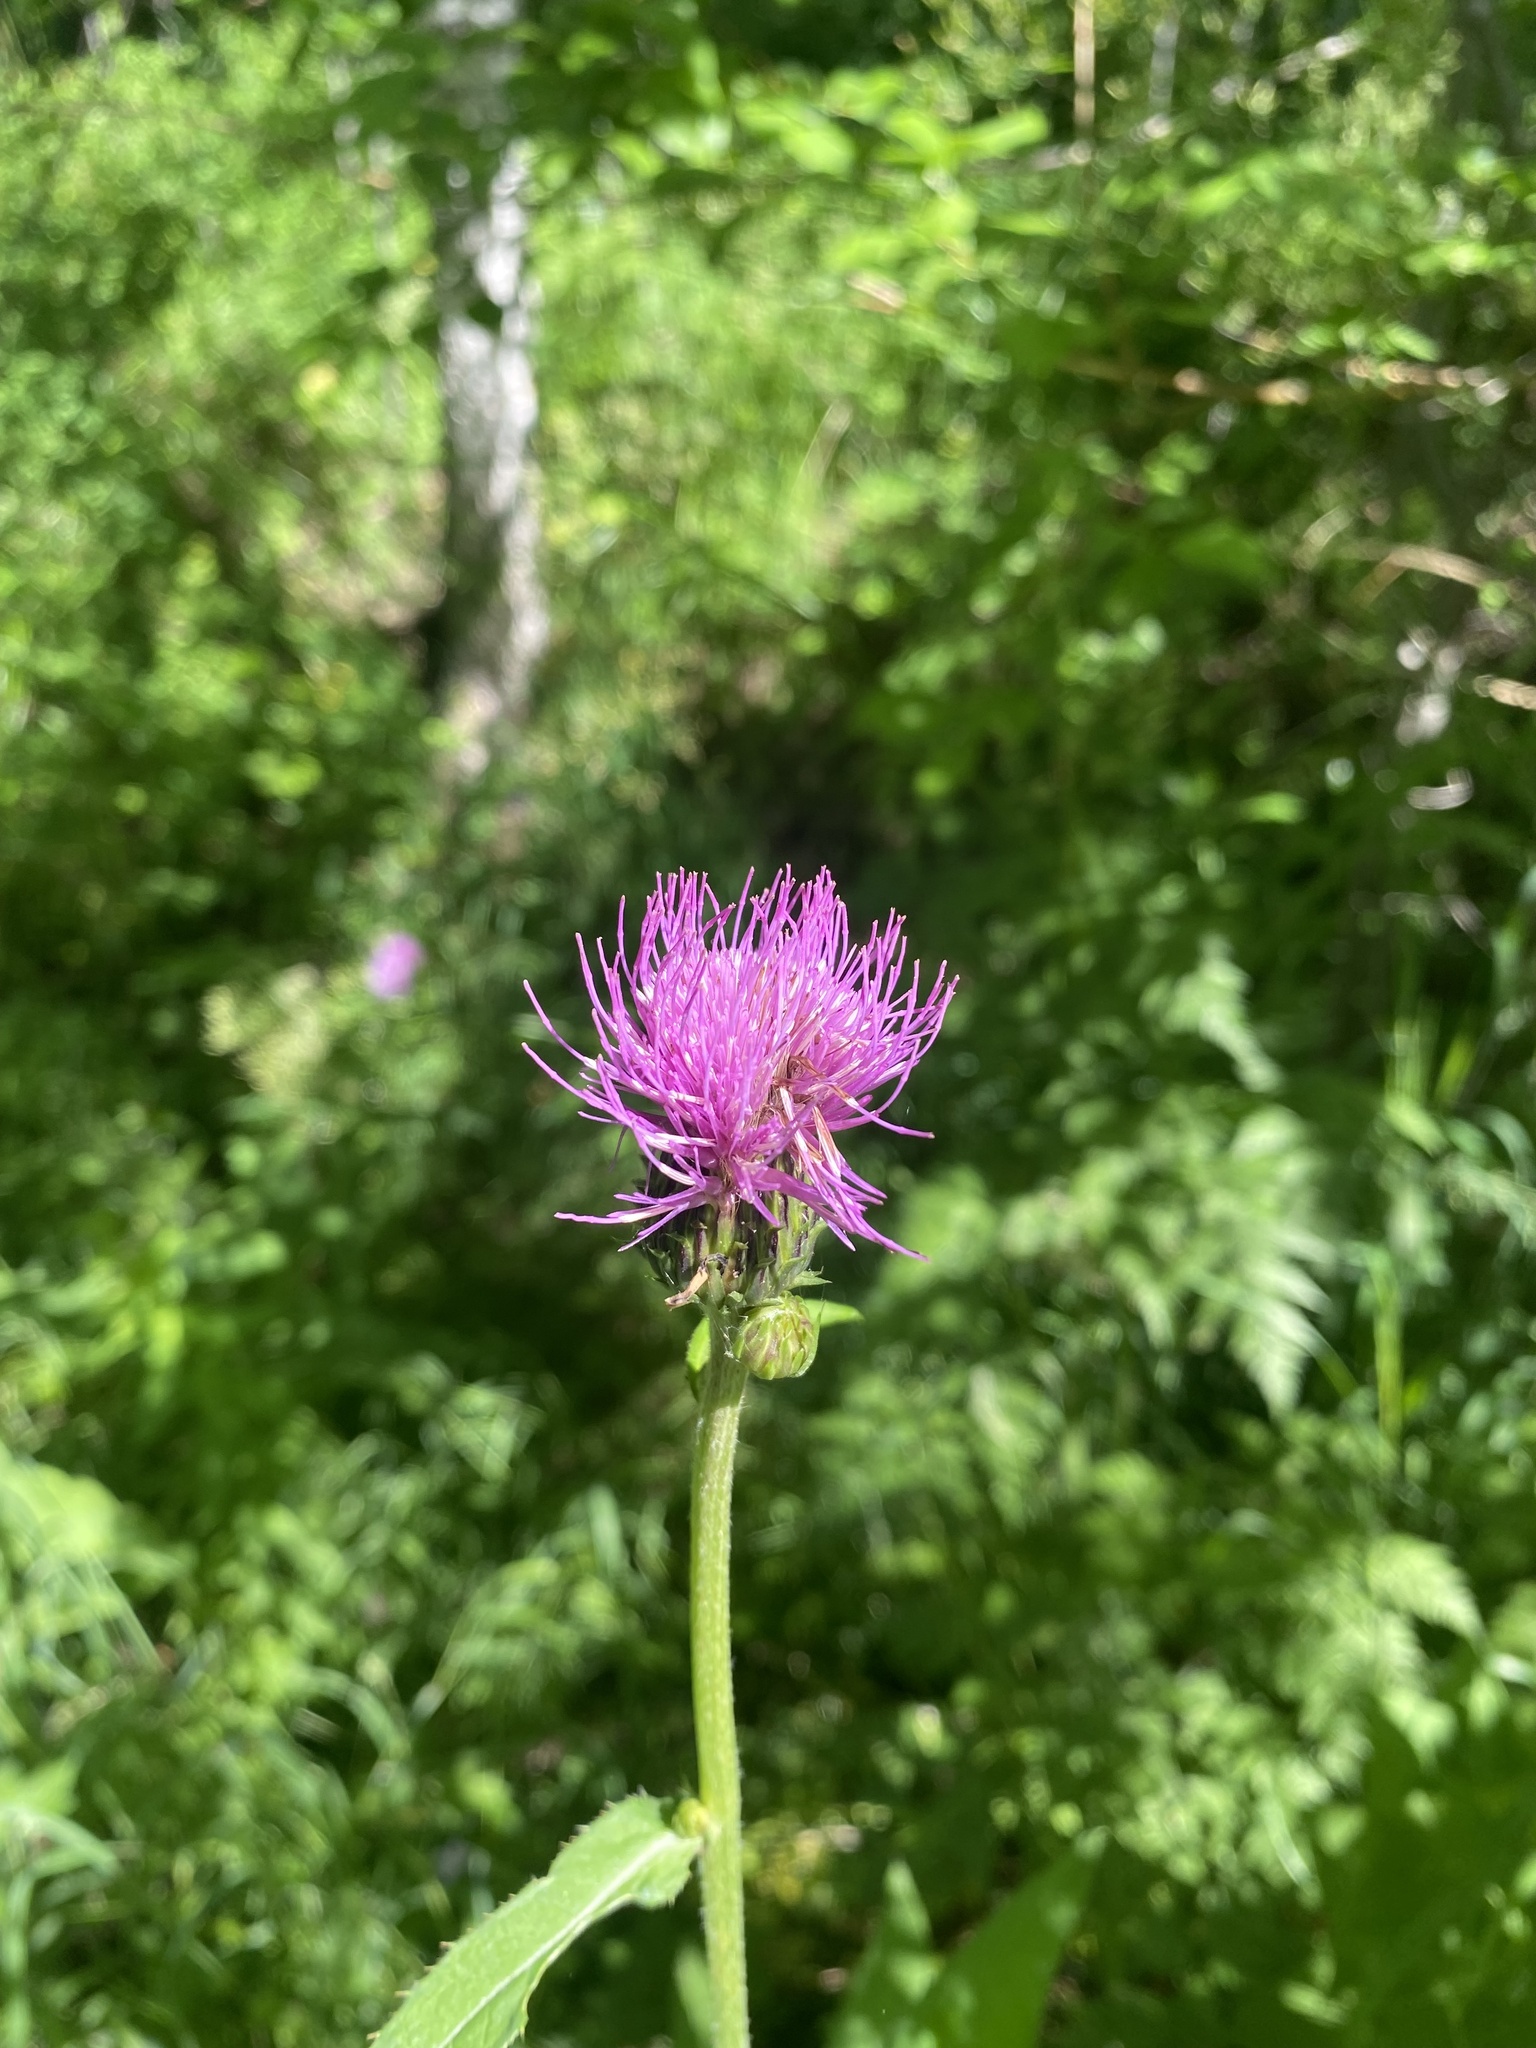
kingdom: Plantae
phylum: Tracheophyta
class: Magnoliopsida
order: Asterales
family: Asteraceae
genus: Cirsium
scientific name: Cirsium helenioides
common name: Melancholy thistle
